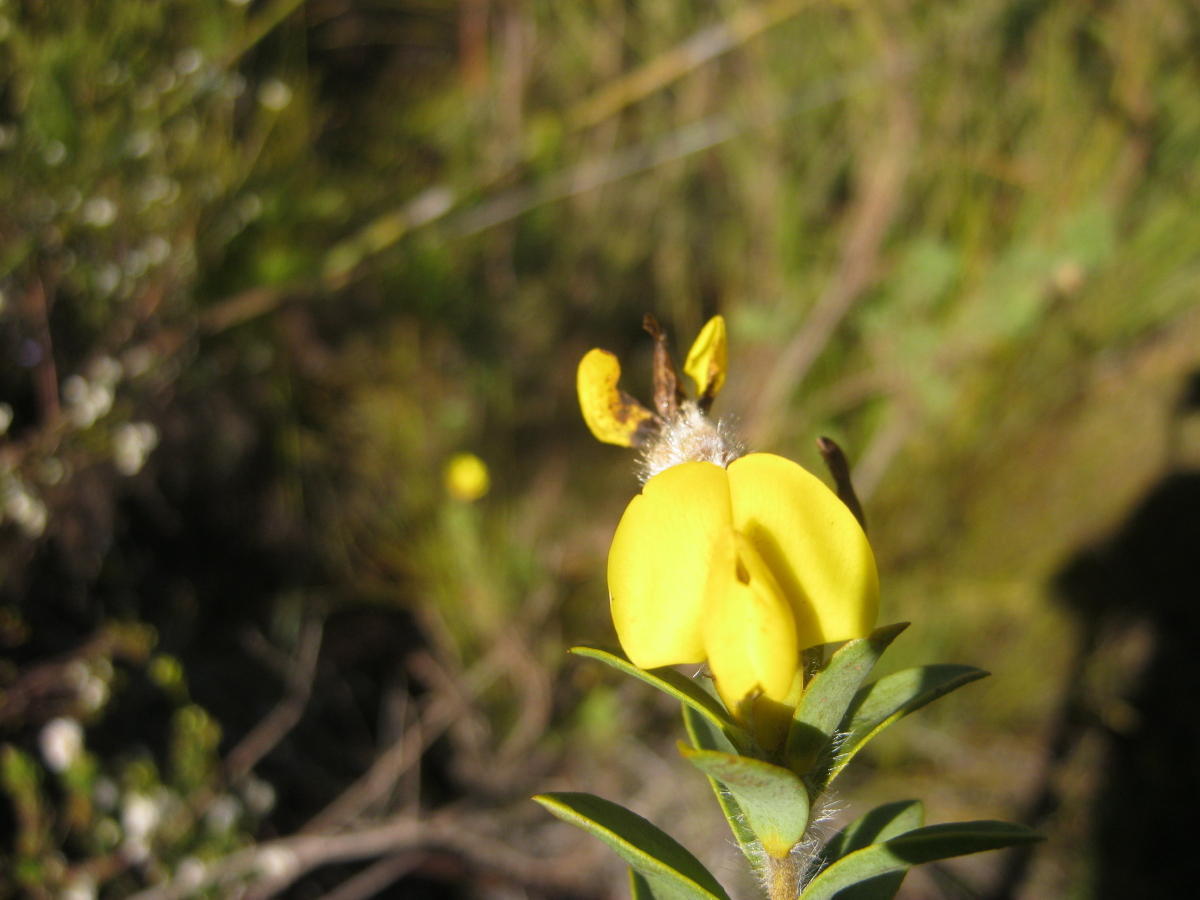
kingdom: Plantae
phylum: Tracheophyta
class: Magnoliopsida
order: Fabales
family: Fabaceae
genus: Liparia
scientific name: Liparia hirsuta
